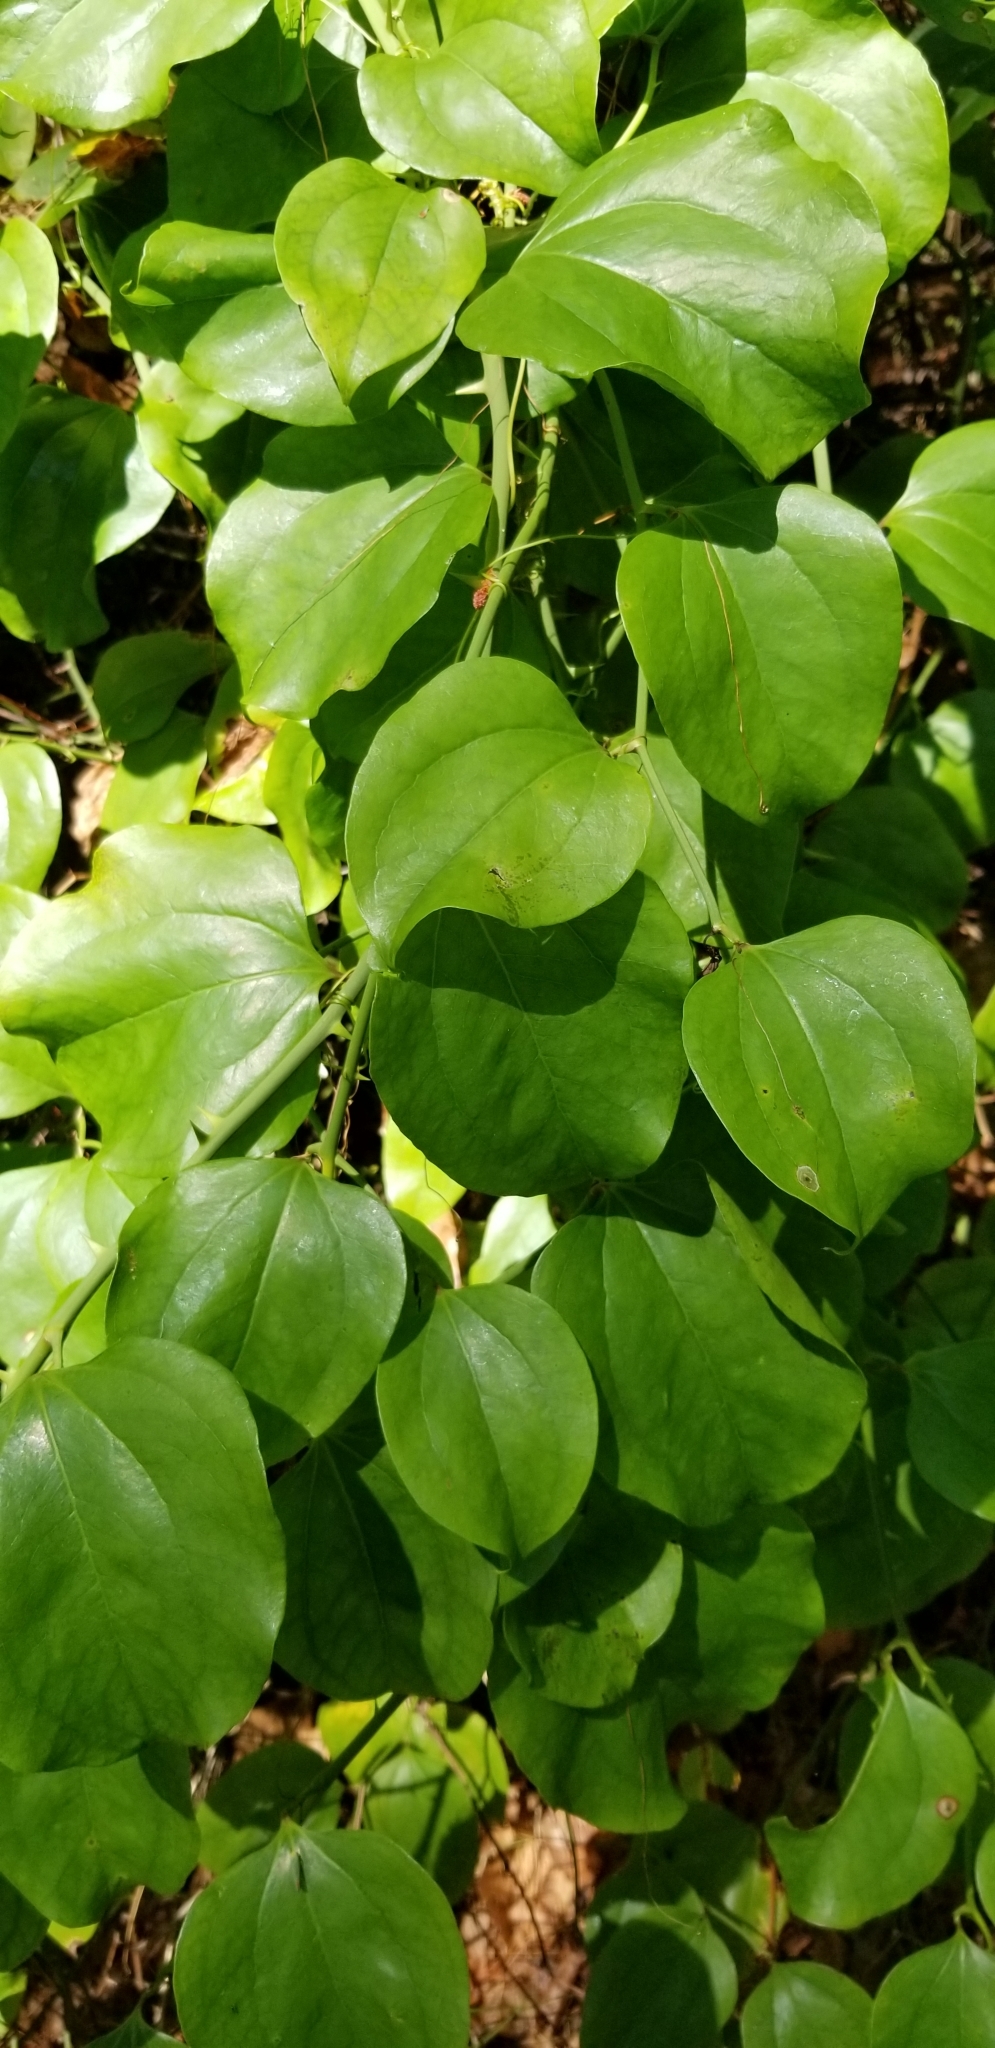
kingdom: Plantae
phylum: Tracheophyta
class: Liliopsida
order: Liliales
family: Smilacaceae
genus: Smilax
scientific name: Smilax rotundifolia
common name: Bullbriar
